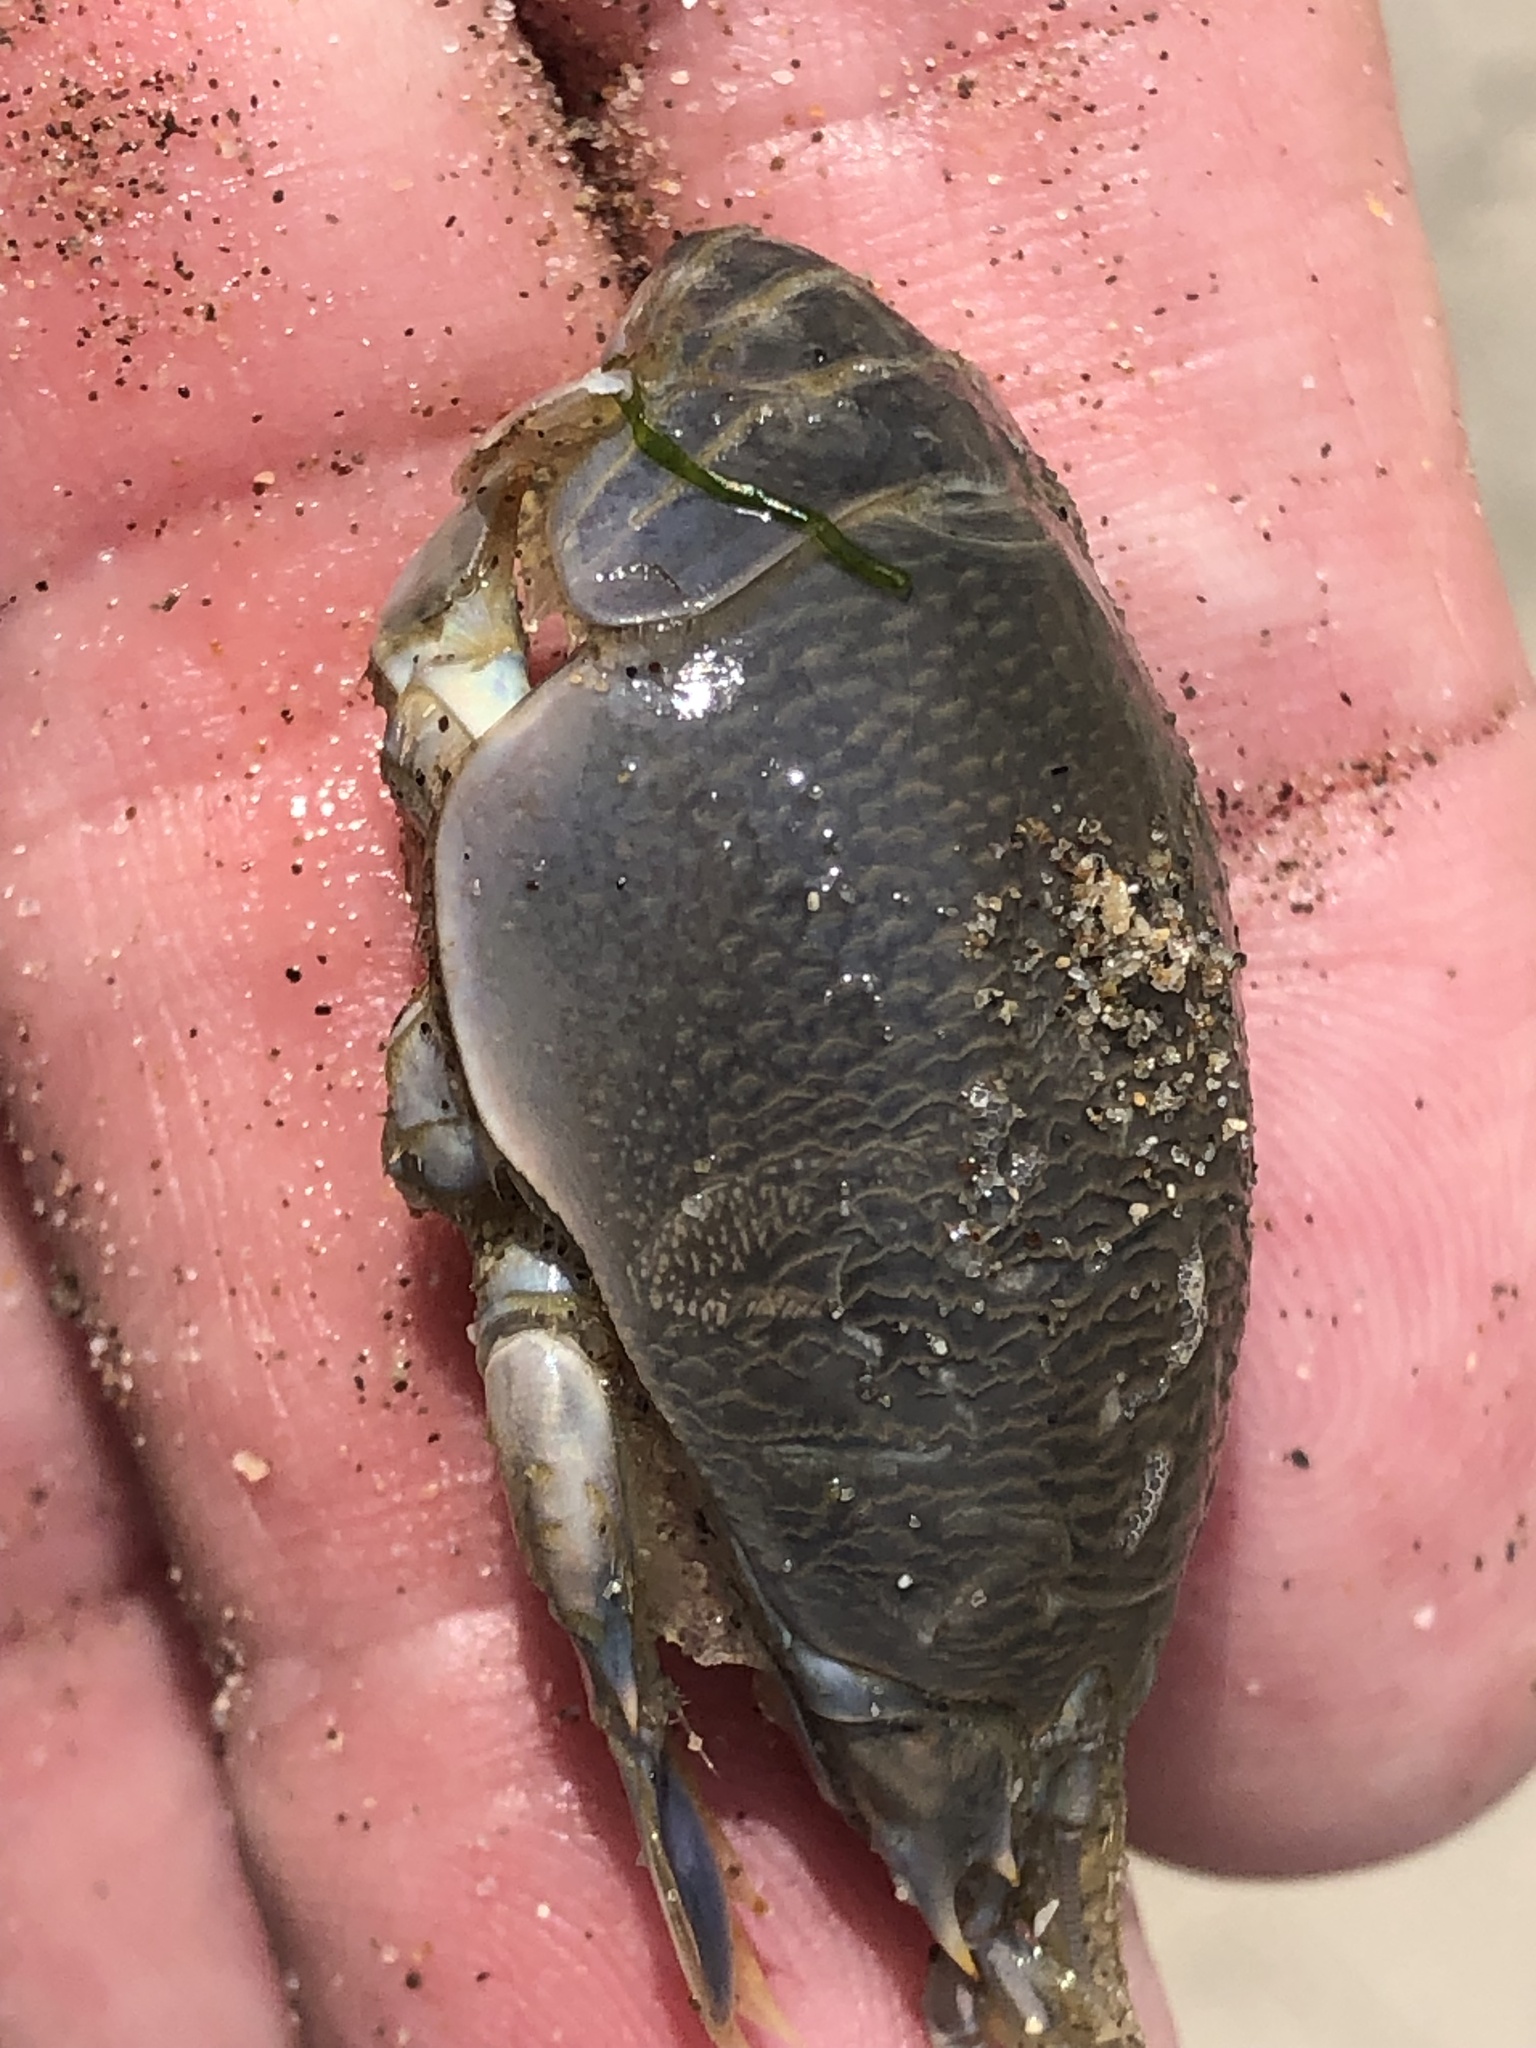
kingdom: Animalia
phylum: Arthropoda
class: Malacostraca
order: Decapoda
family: Hippidae
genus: Emerita
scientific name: Emerita analoga
